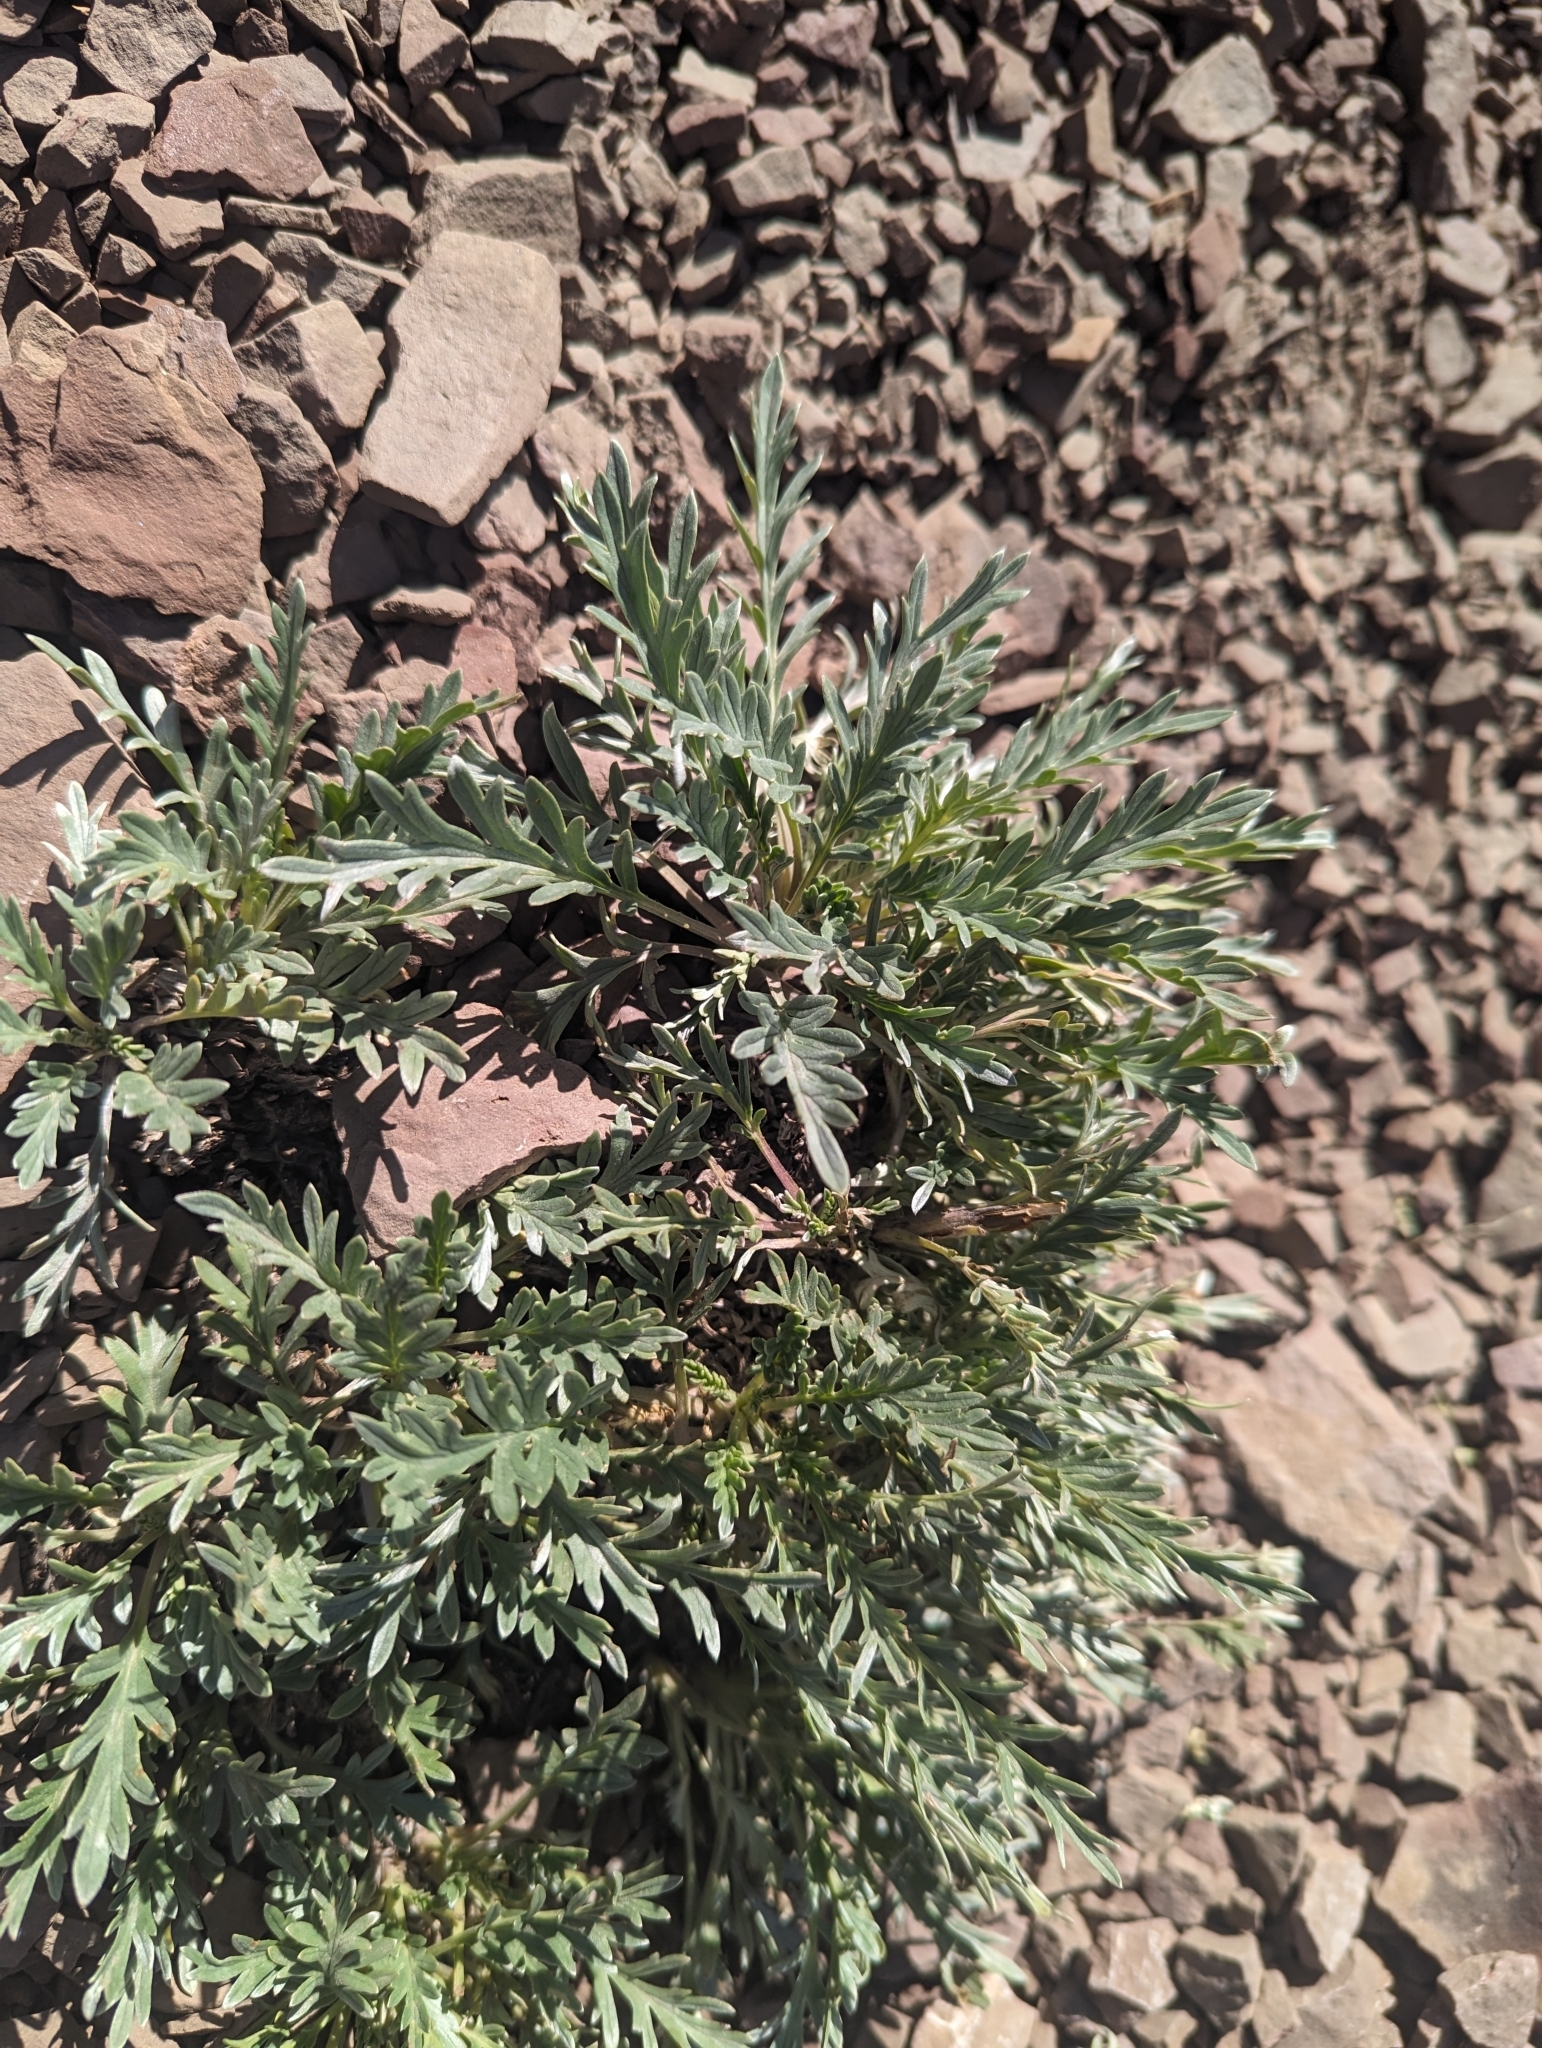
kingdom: Plantae
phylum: Tracheophyta
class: Magnoliopsida
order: Boraginales
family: Hydrophyllaceae
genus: Phacelia
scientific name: Phacelia sericea
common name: Silky phacelia
